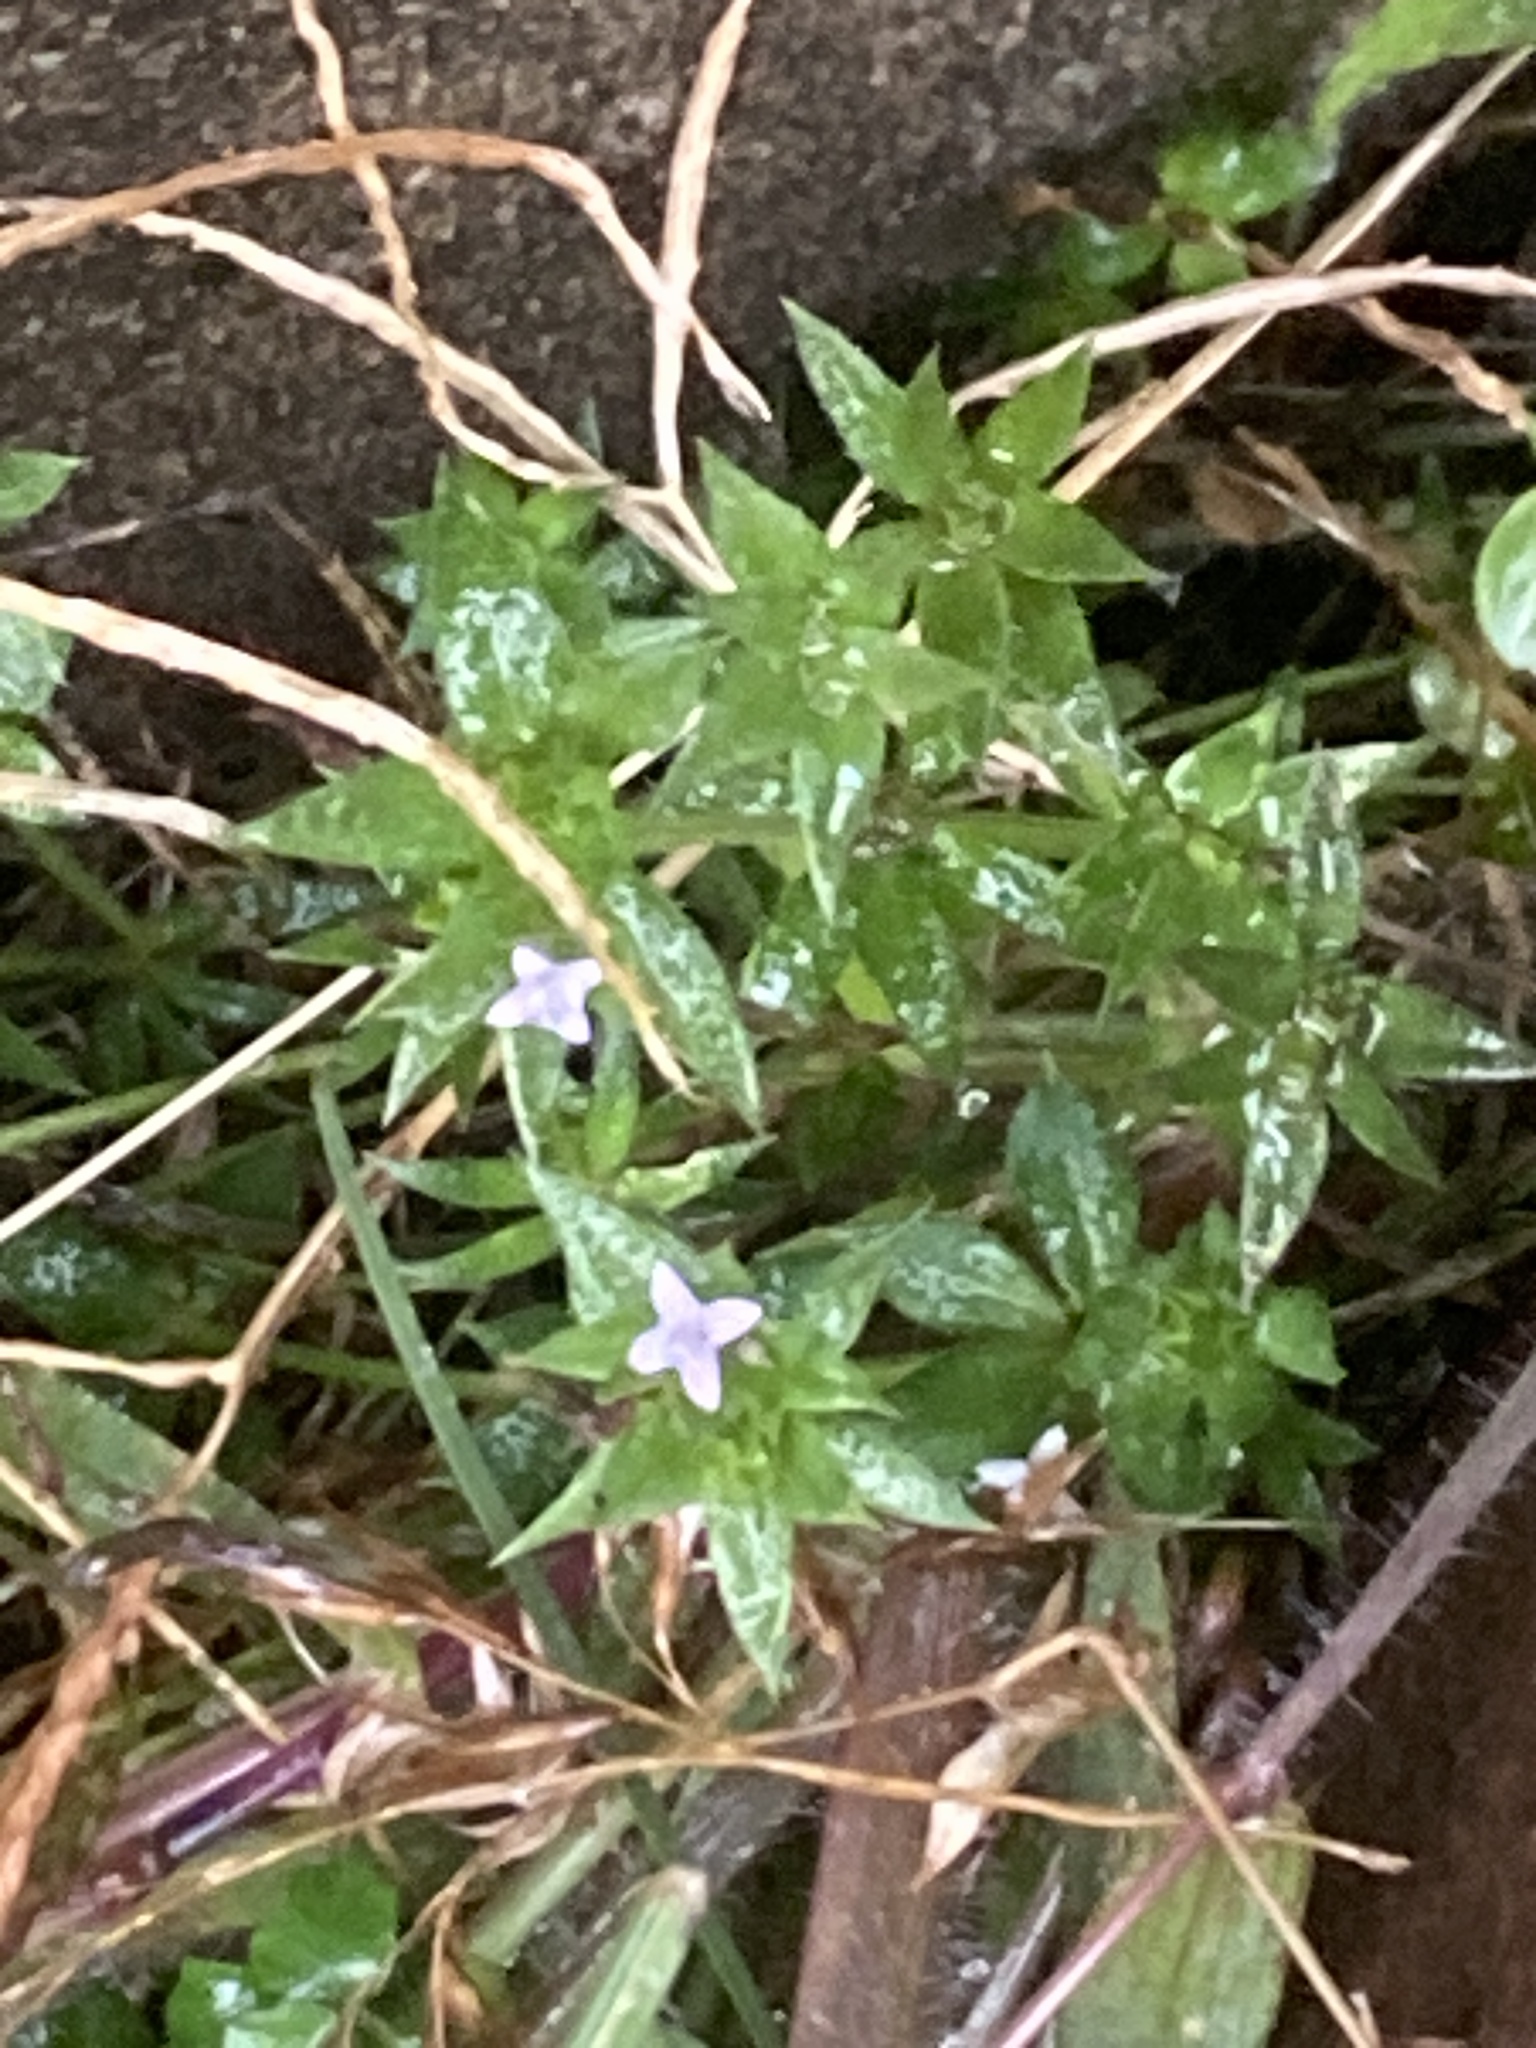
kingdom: Plantae
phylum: Tracheophyta
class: Magnoliopsida
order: Gentianales
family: Rubiaceae
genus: Sherardia
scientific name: Sherardia arvensis
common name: Field madder
